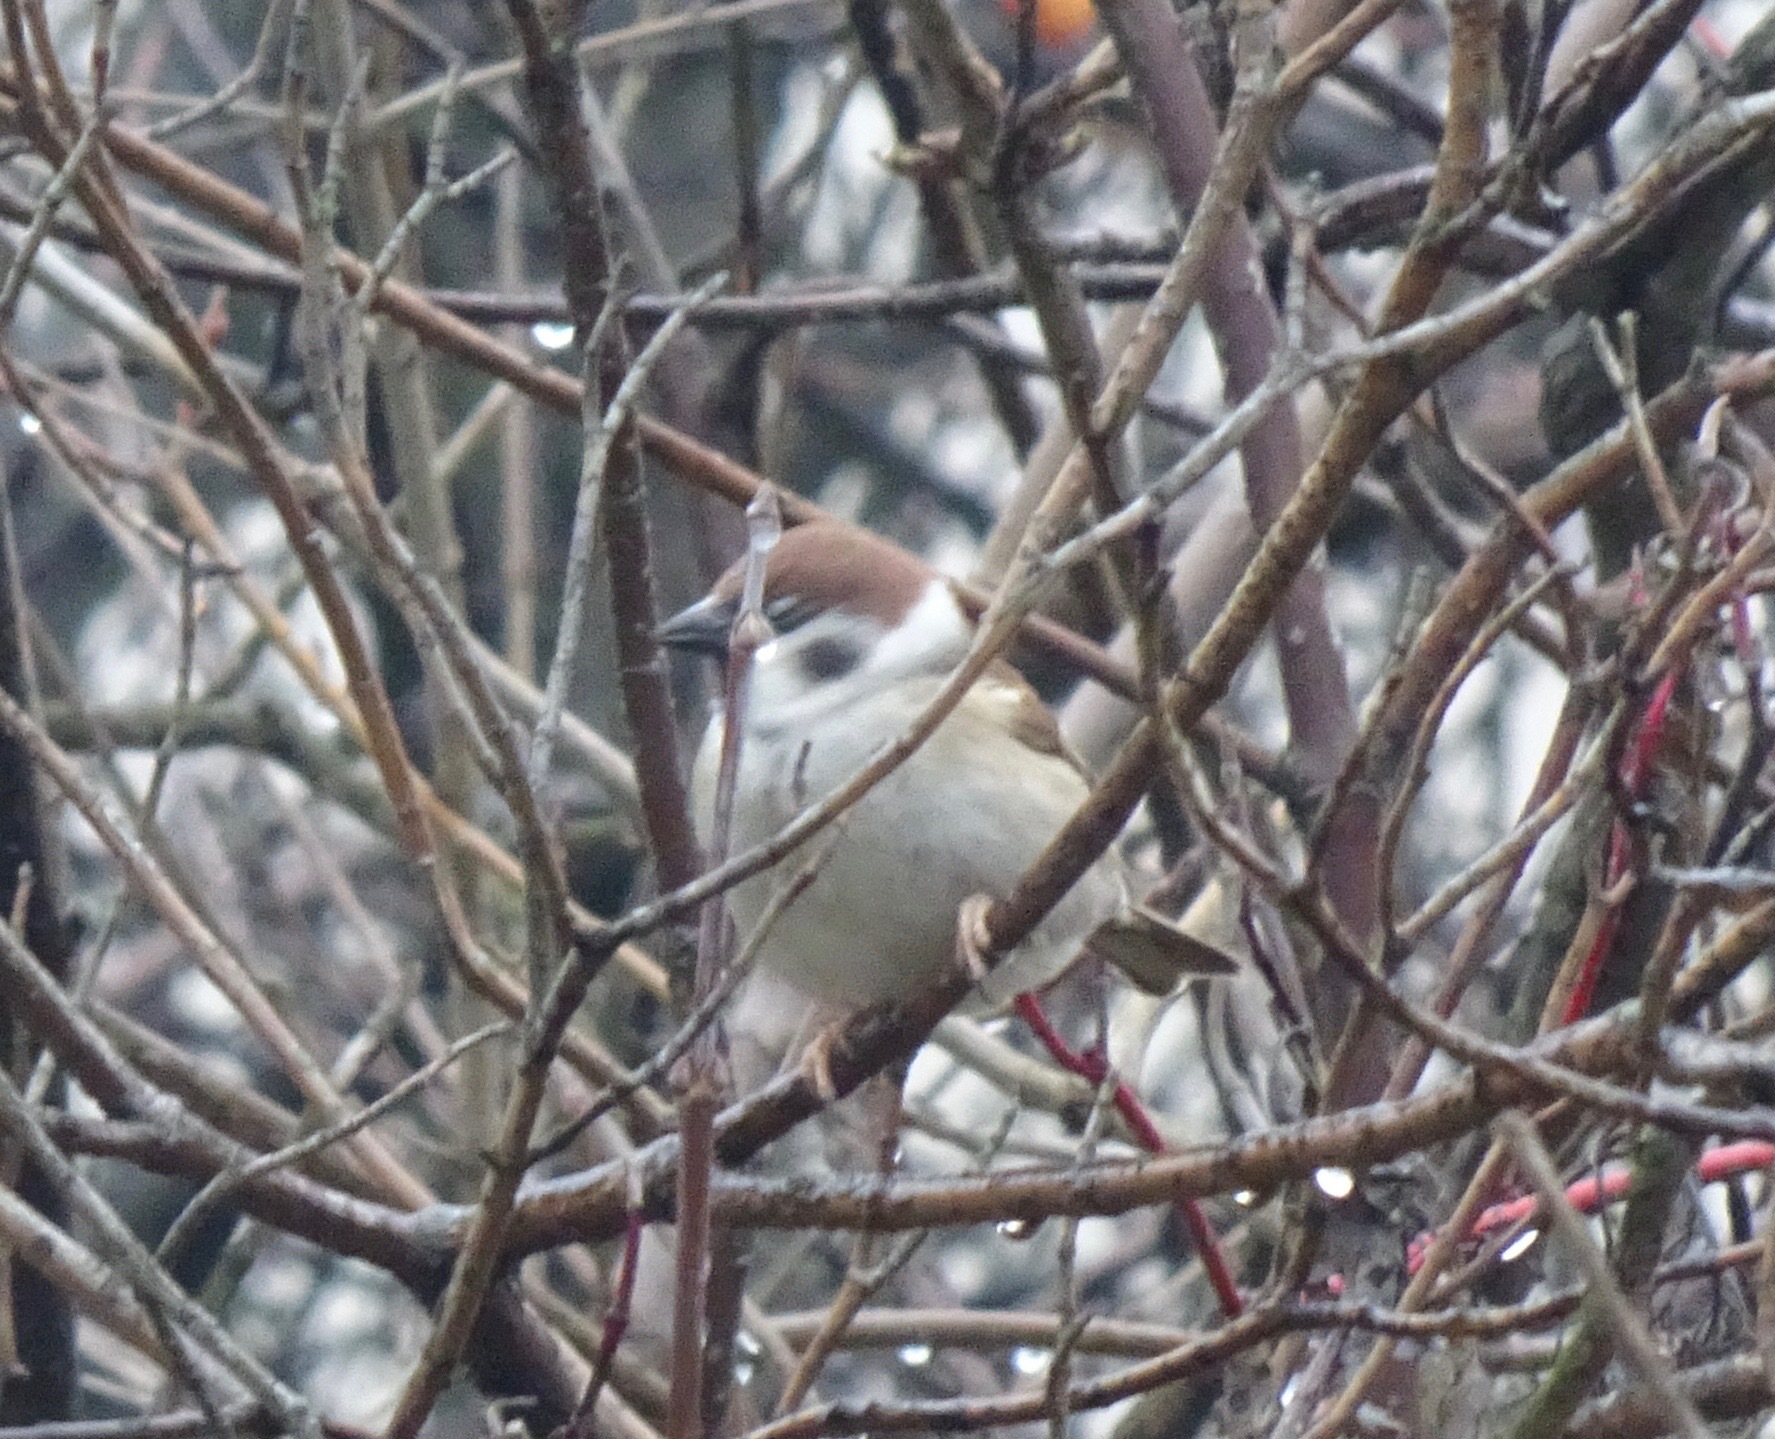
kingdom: Animalia
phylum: Chordata
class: Aves
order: Passeriformes
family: Passeridae
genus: Passer
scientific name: Passer montanus
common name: Eurasian tree sparrow
